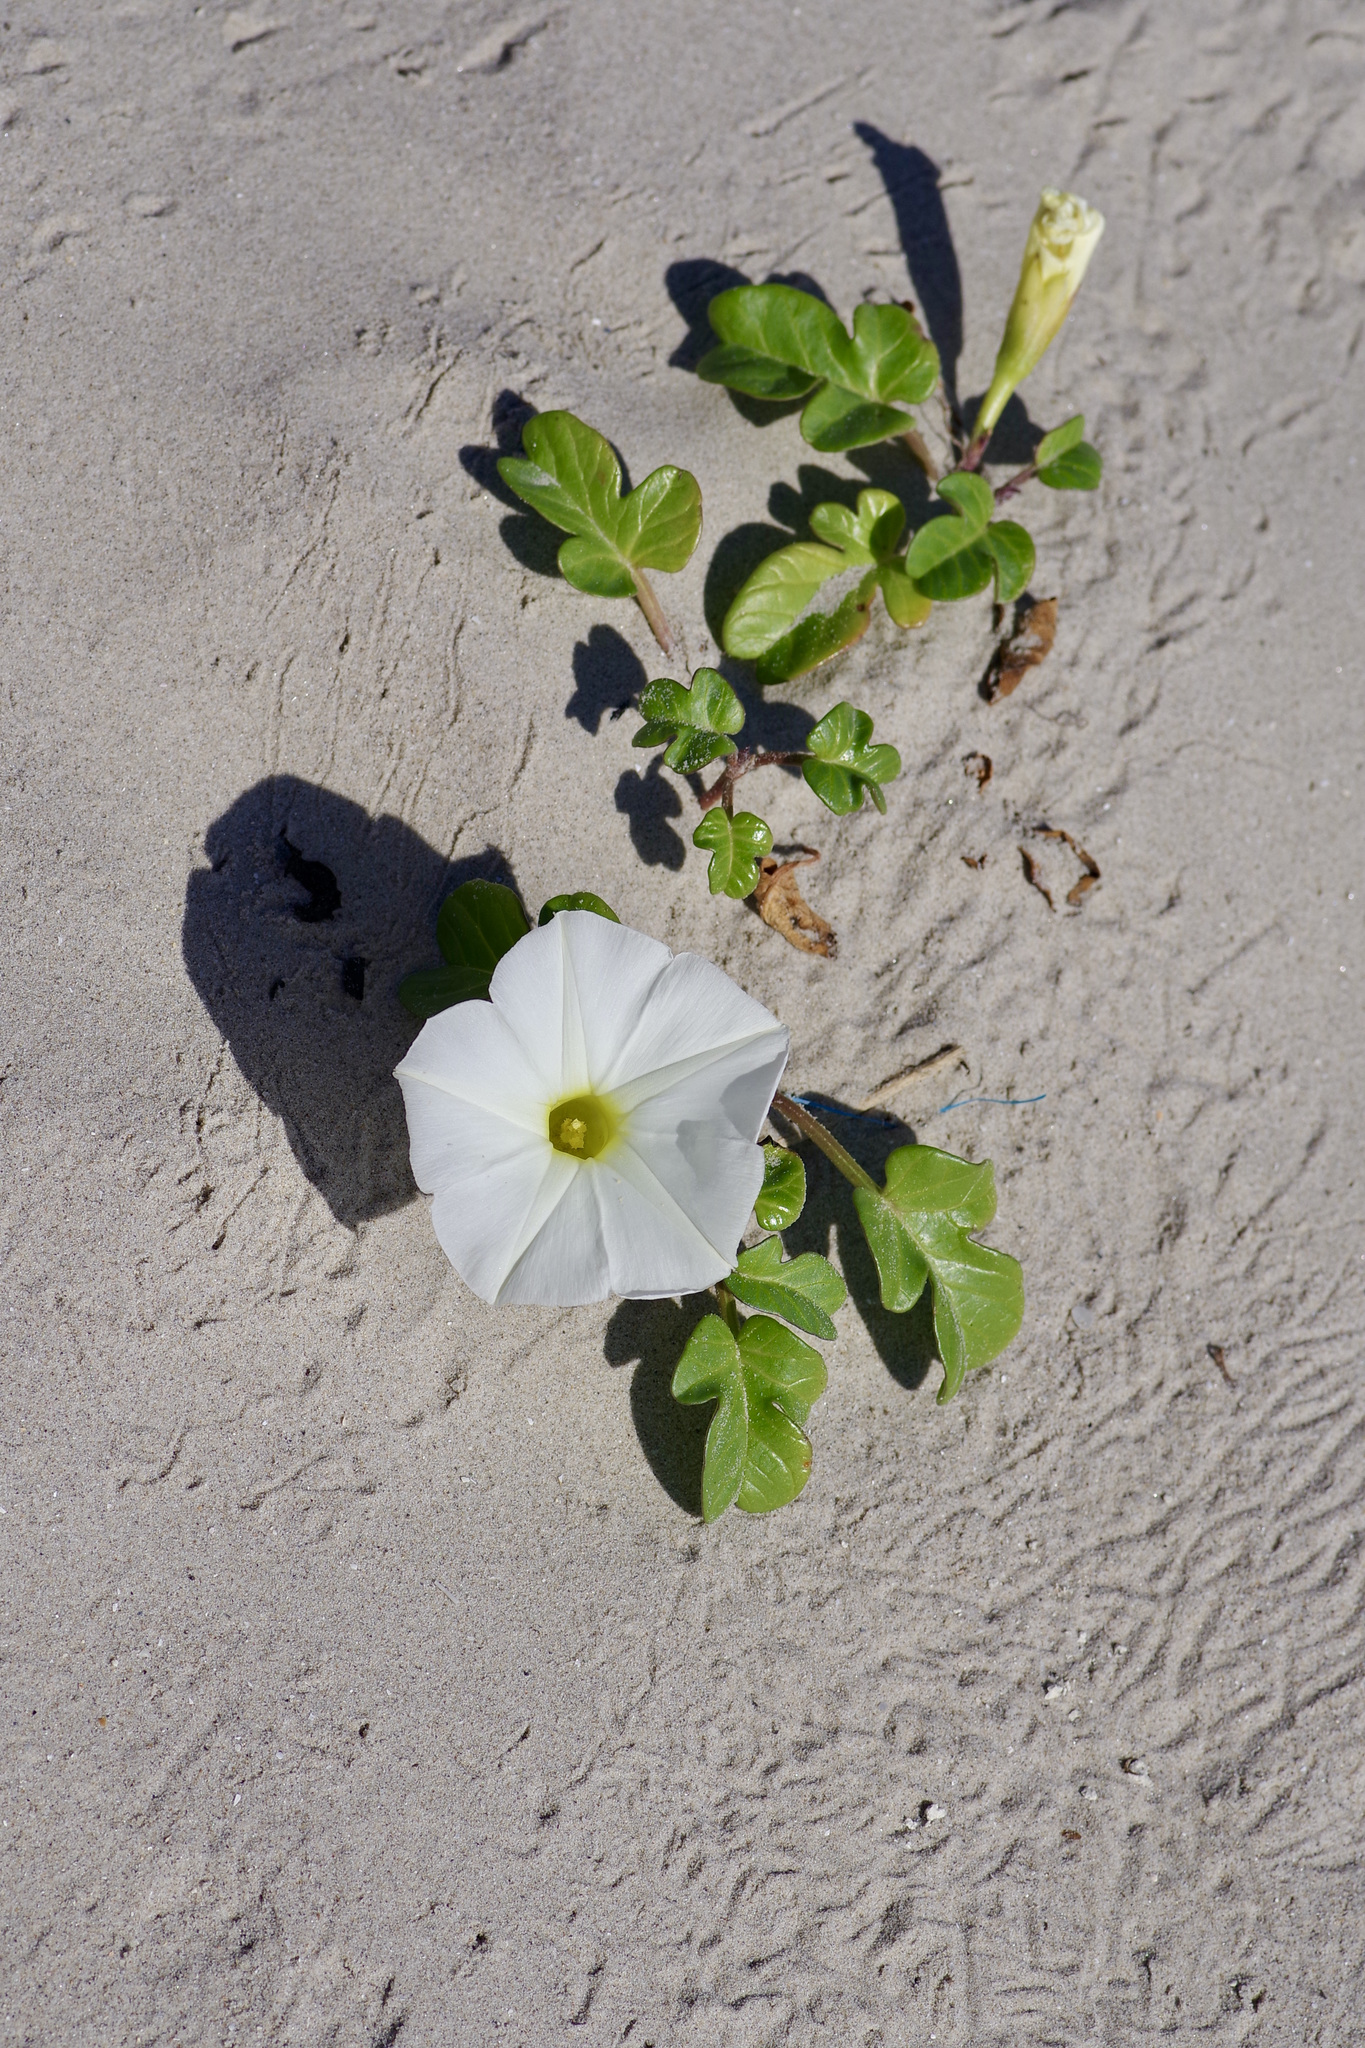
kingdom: Plantae
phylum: Tracheophyta
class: Magnoliopsida
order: Solanales
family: Convolvulaceae
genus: Ipomoea
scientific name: Ipomoea imperati
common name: Fiddle-leaf morning-glory
